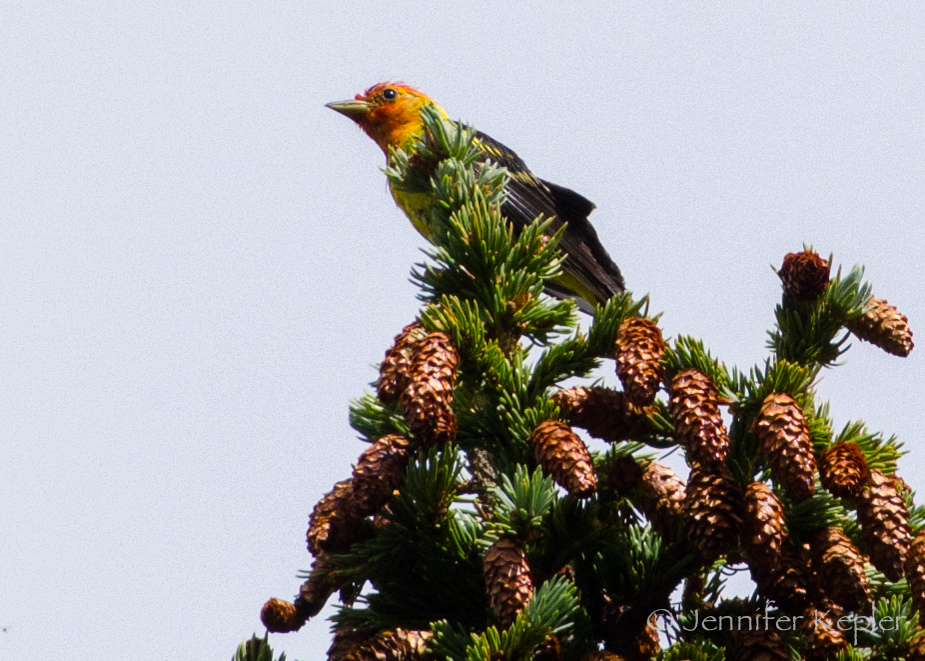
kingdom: Animalia
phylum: Chordata
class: Aves
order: Passeriformes
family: Cardinalidae
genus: Piranga
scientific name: Piranga ludoviciana
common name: Western tanager
